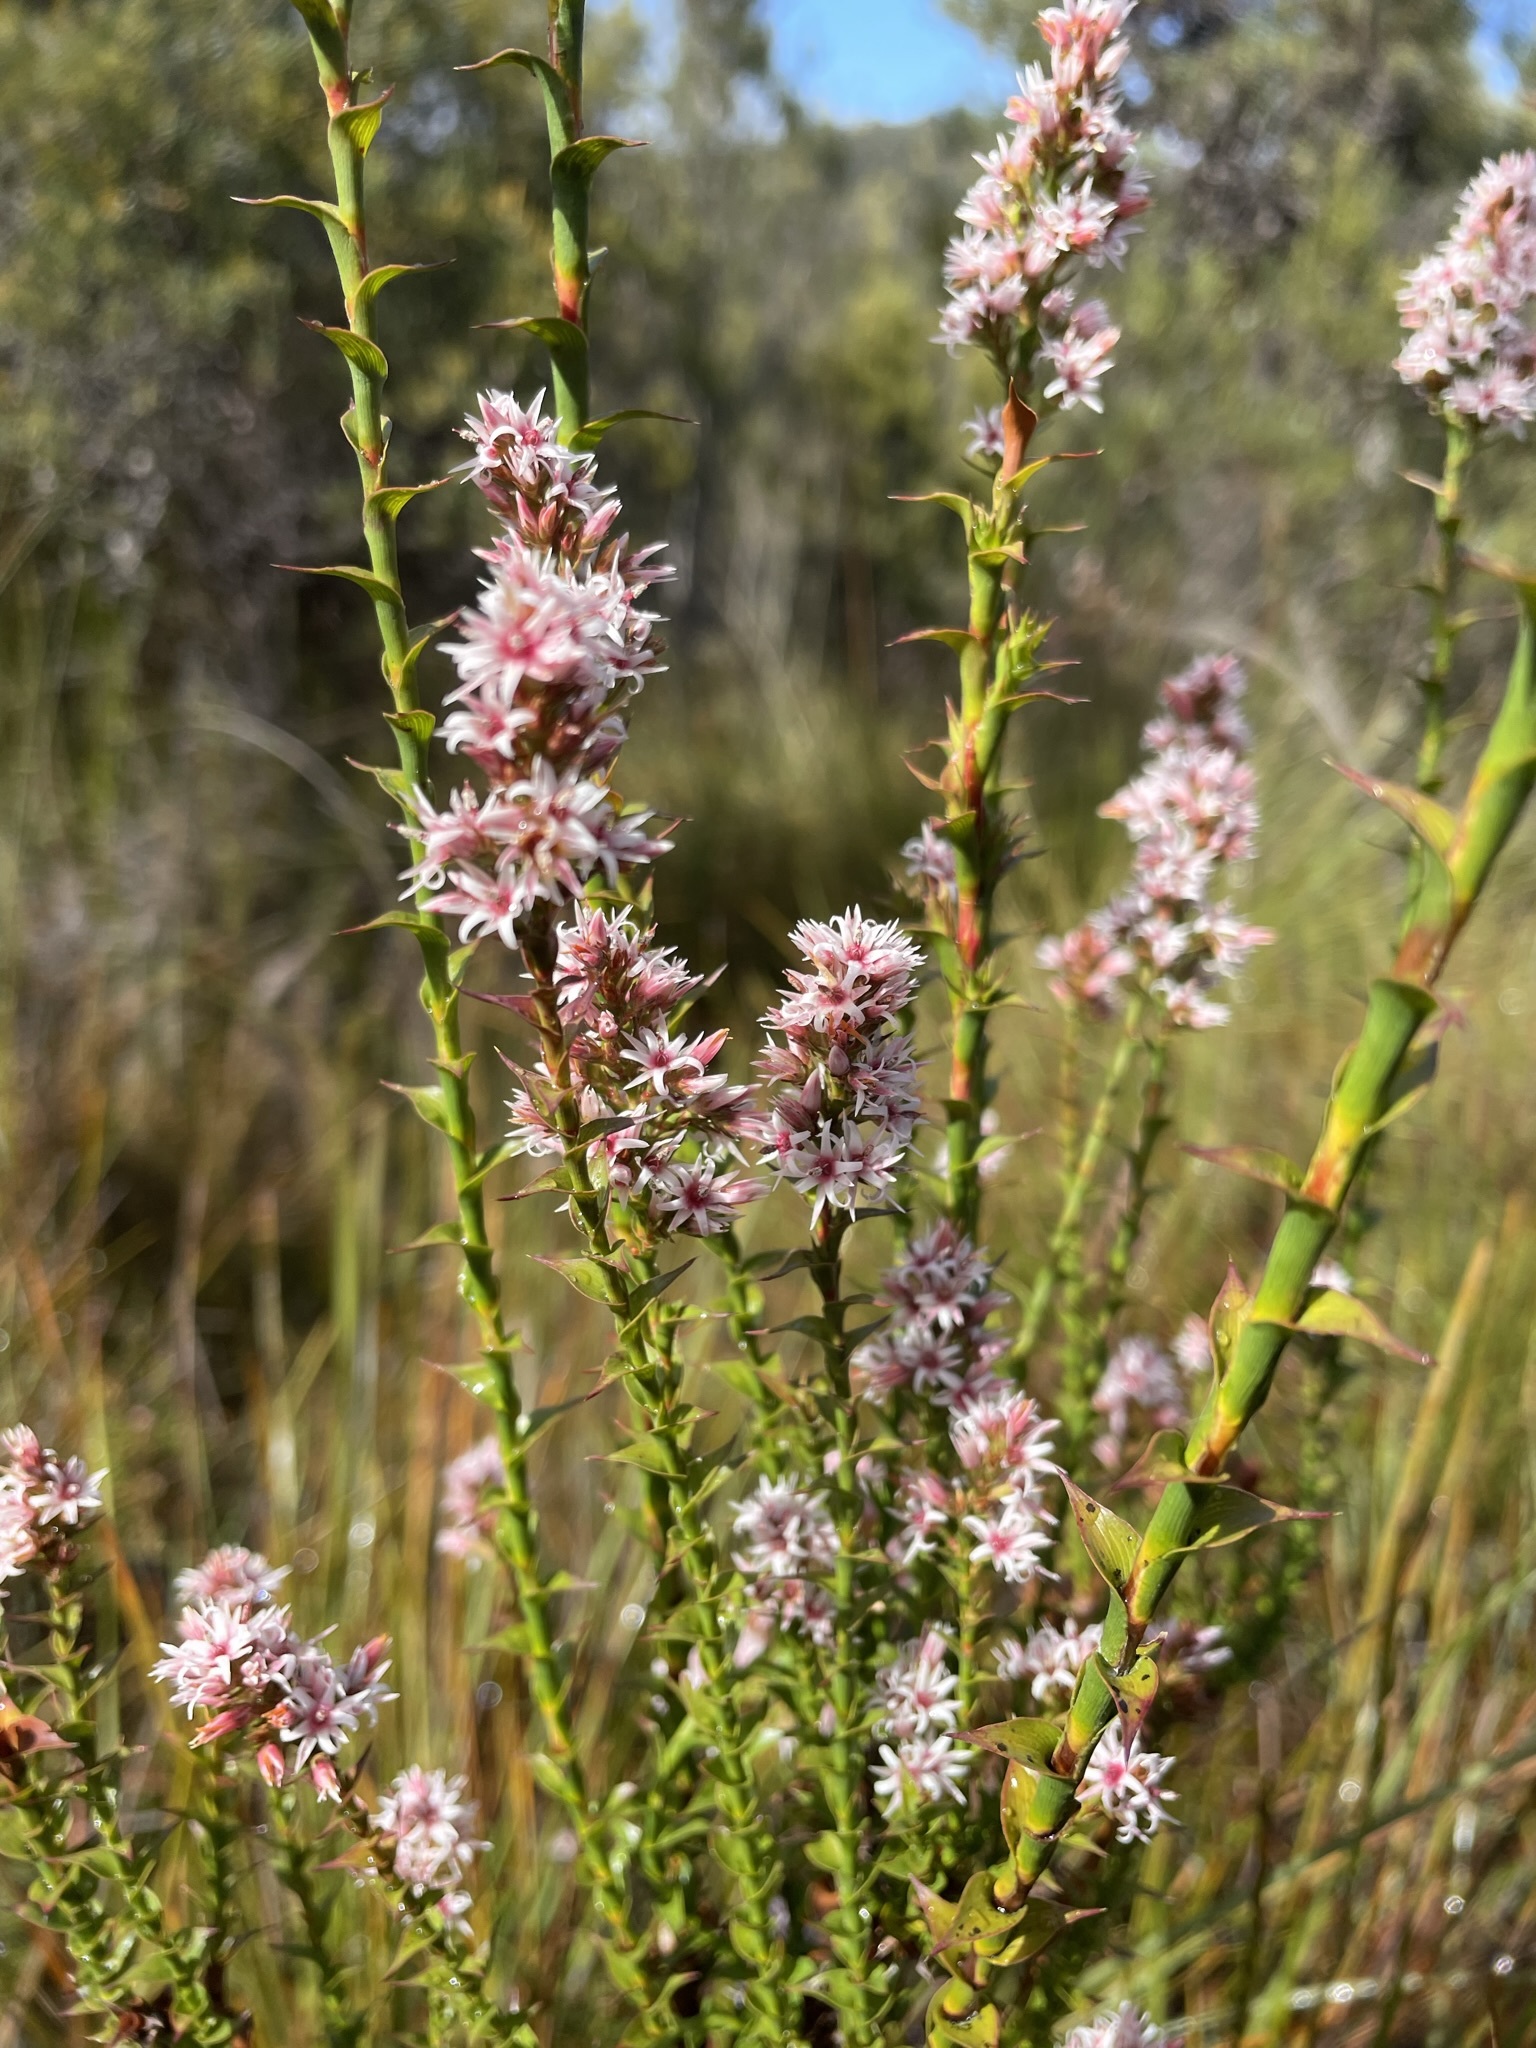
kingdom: Plantae
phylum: Tracheophyta
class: Magnoliopsida
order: Ericales
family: Ericaceae
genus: Sprengelia
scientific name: Sprengelia incarnata
